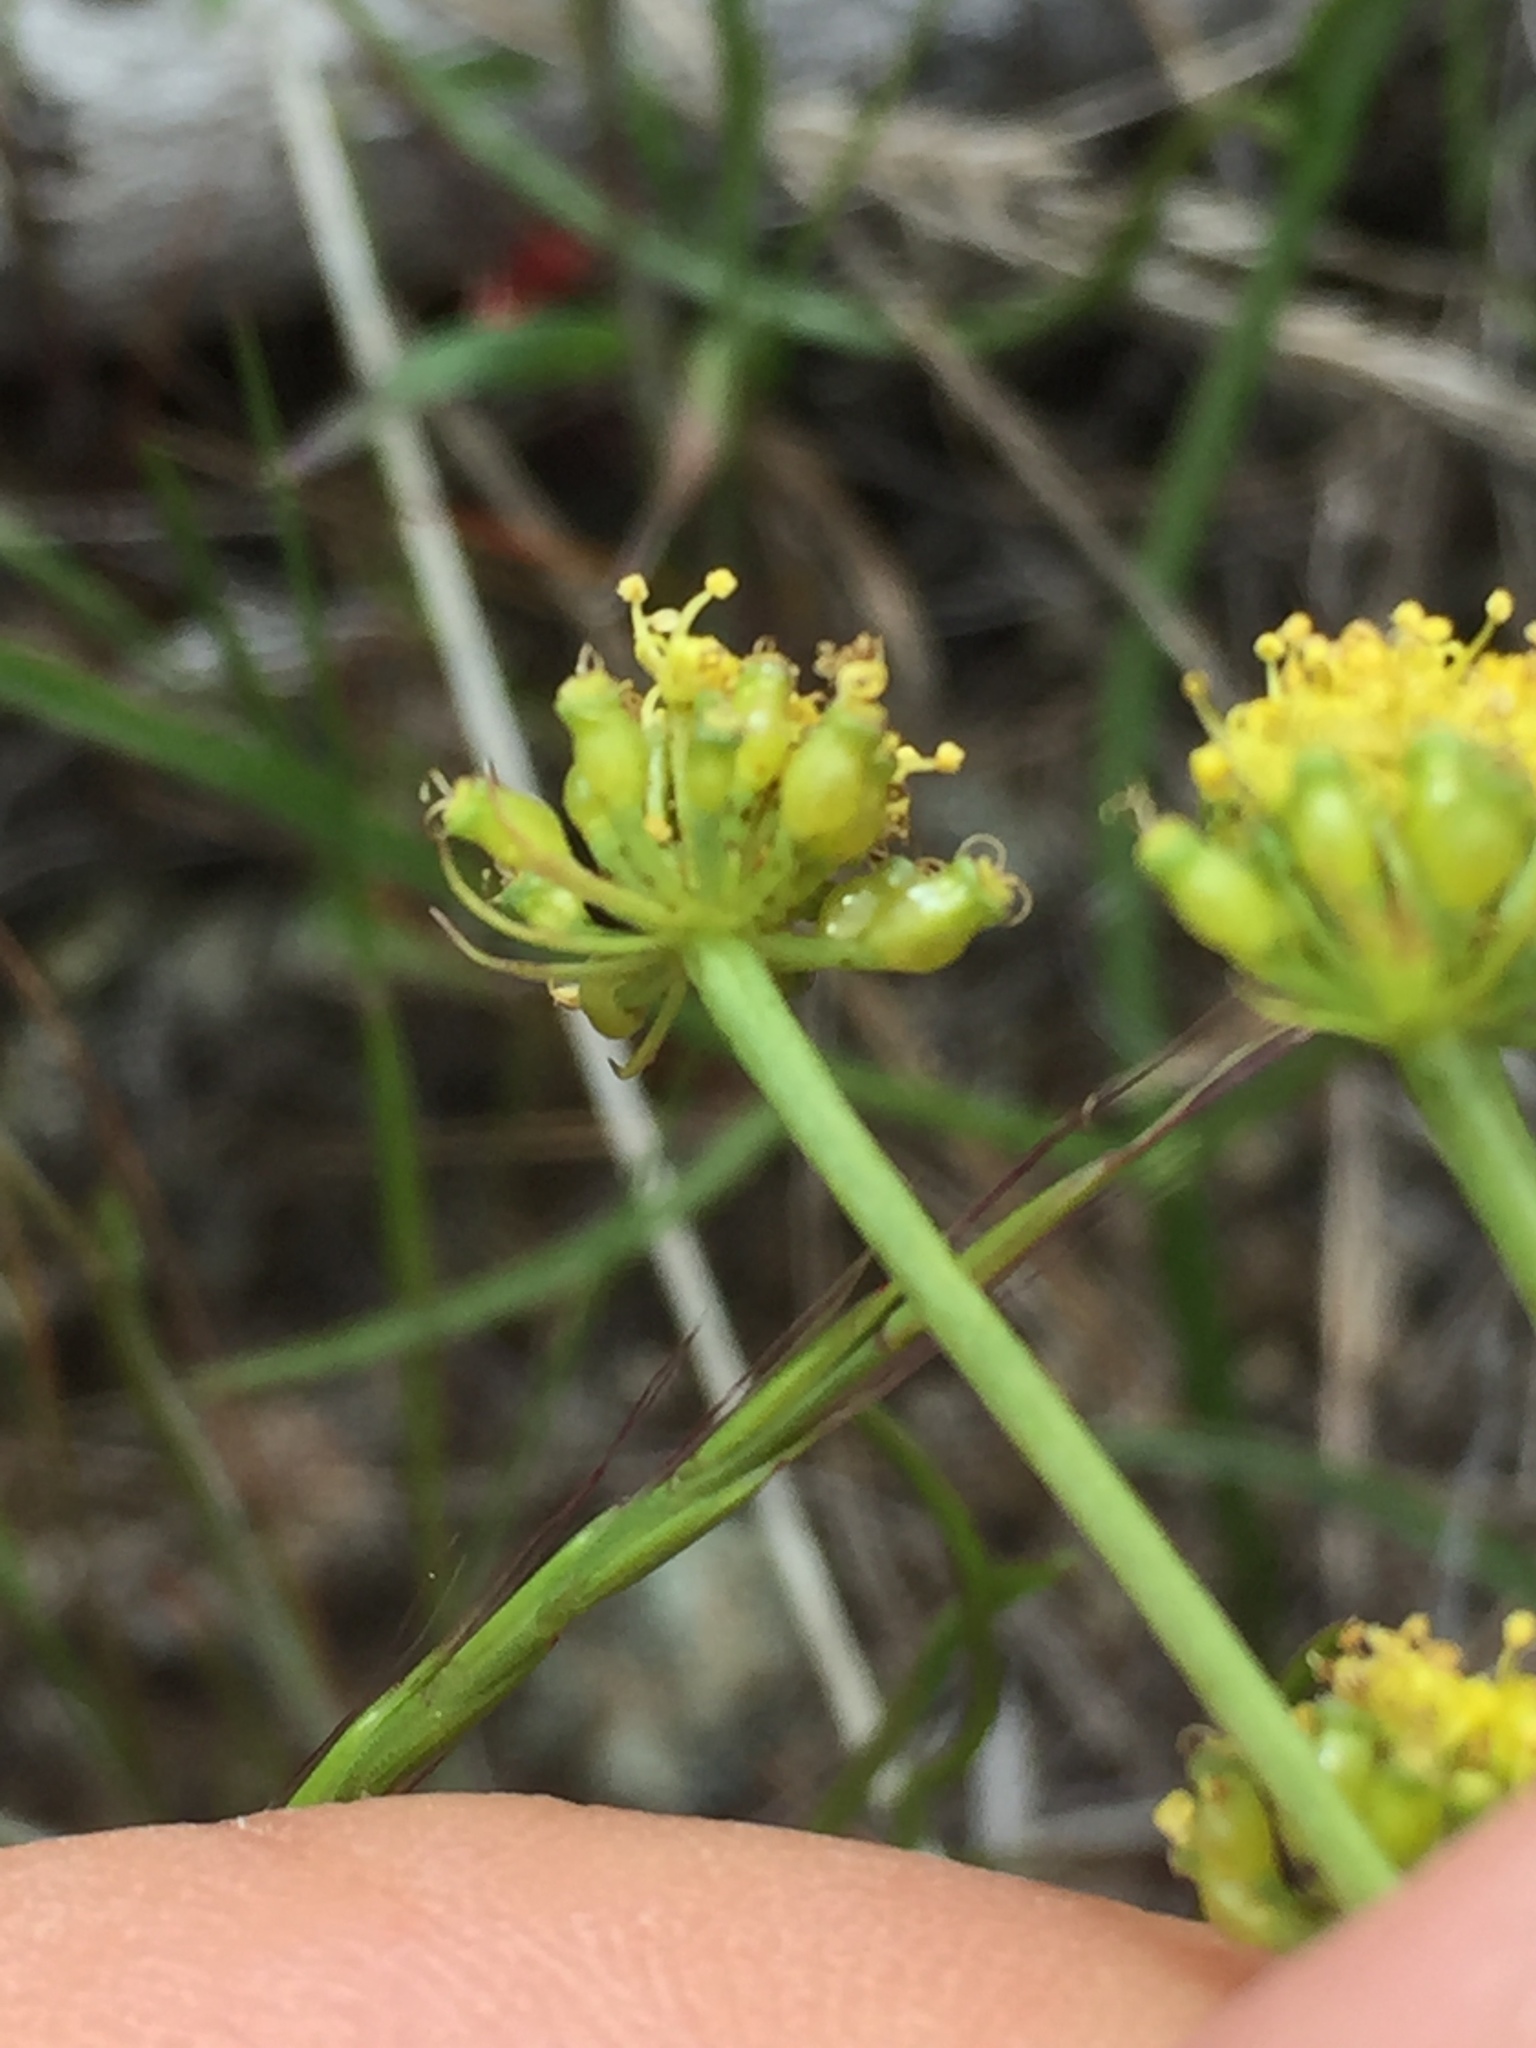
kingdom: Plantae
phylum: Tracheophyta
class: Magnoliopsida
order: Apiales
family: Apiaceae
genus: Lomatium
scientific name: Lomatium marginatum
